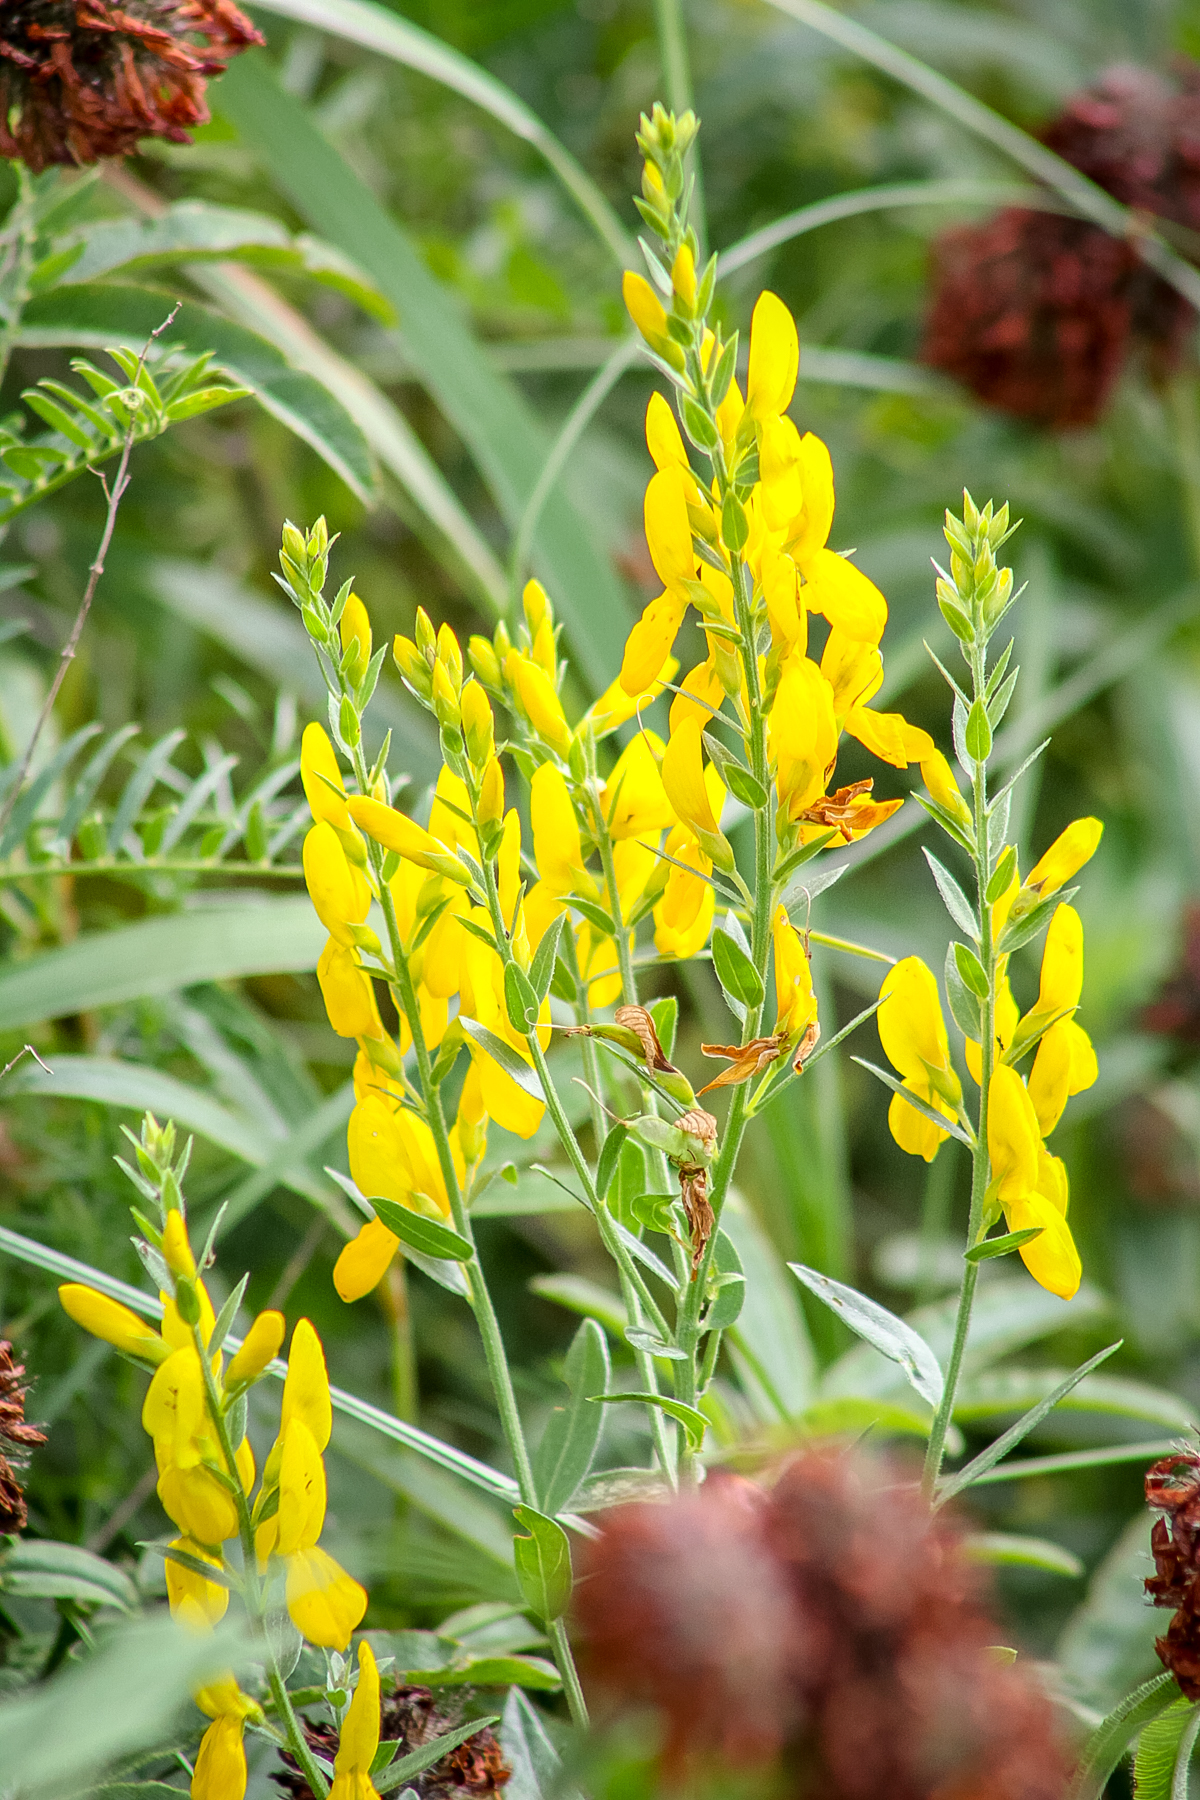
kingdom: Plantae
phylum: Tracheophyta
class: Magnoliopsida
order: Fabales
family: Fabaceae
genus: Genista
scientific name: Genista tinctoria
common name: Dyer's greenweed
